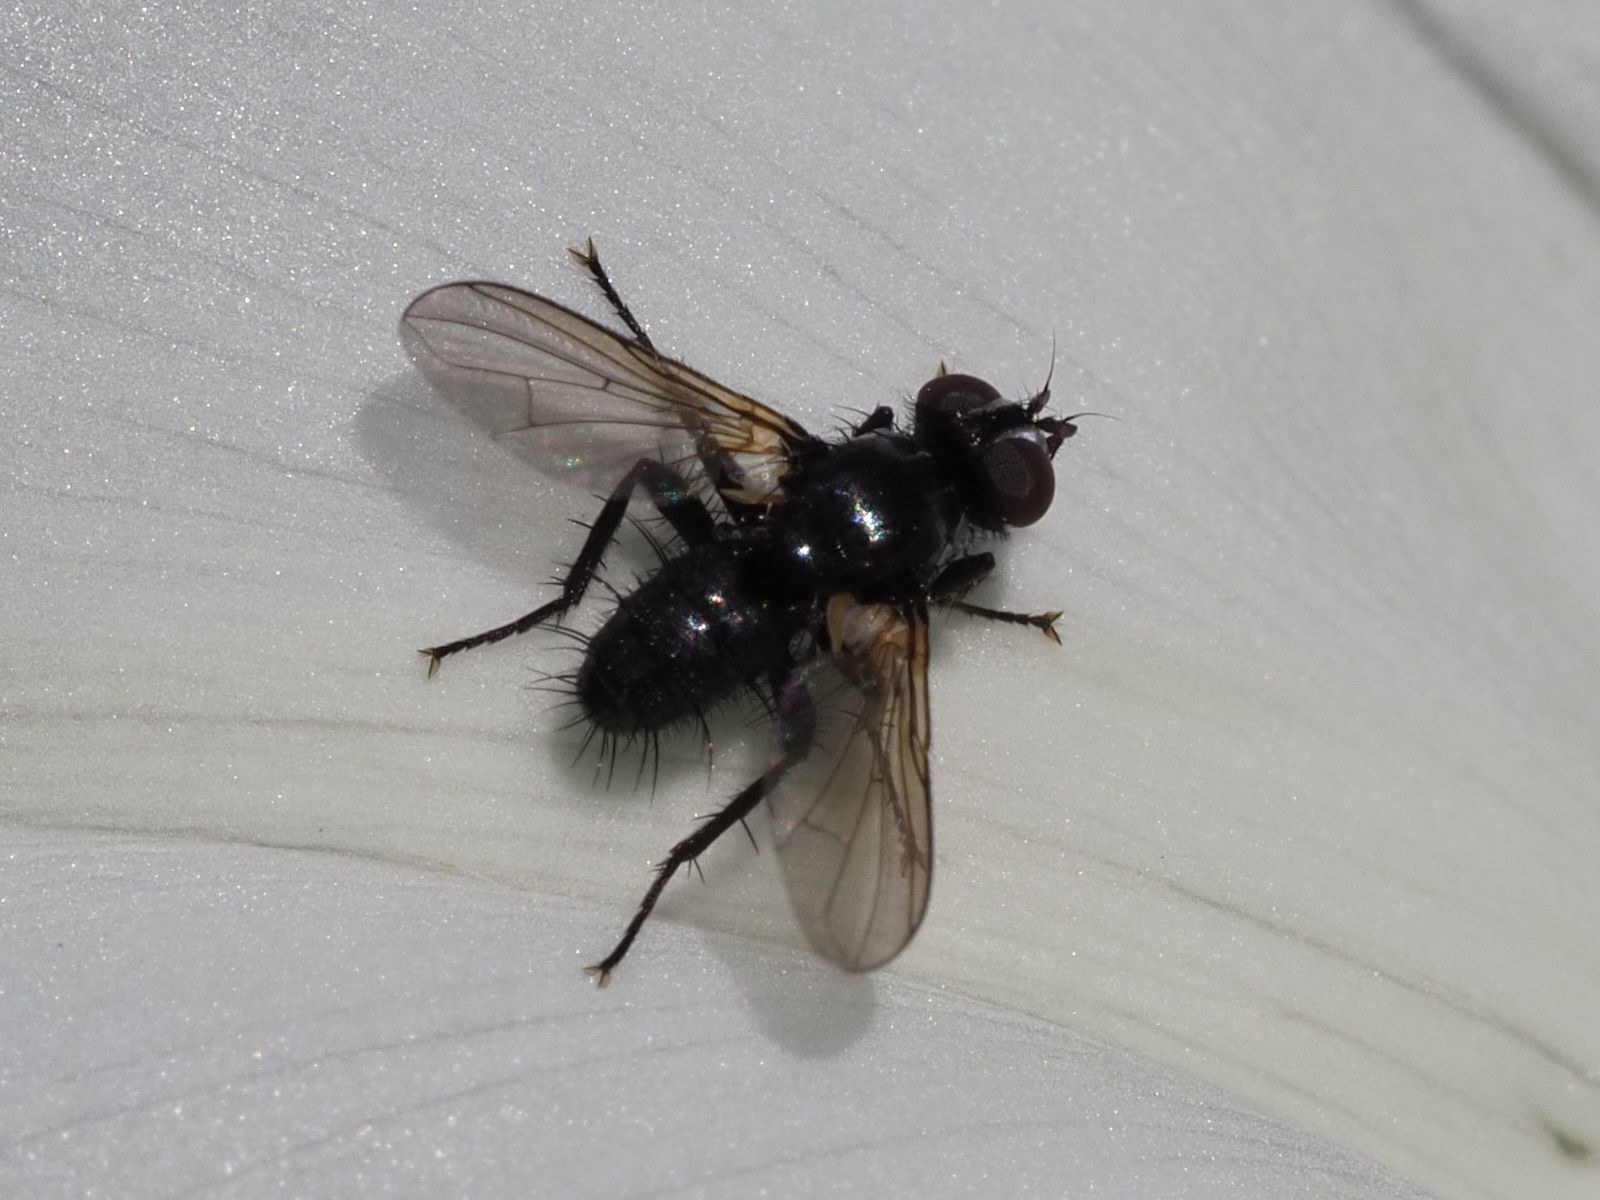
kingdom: Animalia
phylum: Arthropoda
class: Insecta
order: Diptera
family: Tachinidae
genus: Phania
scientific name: Phania funesta
